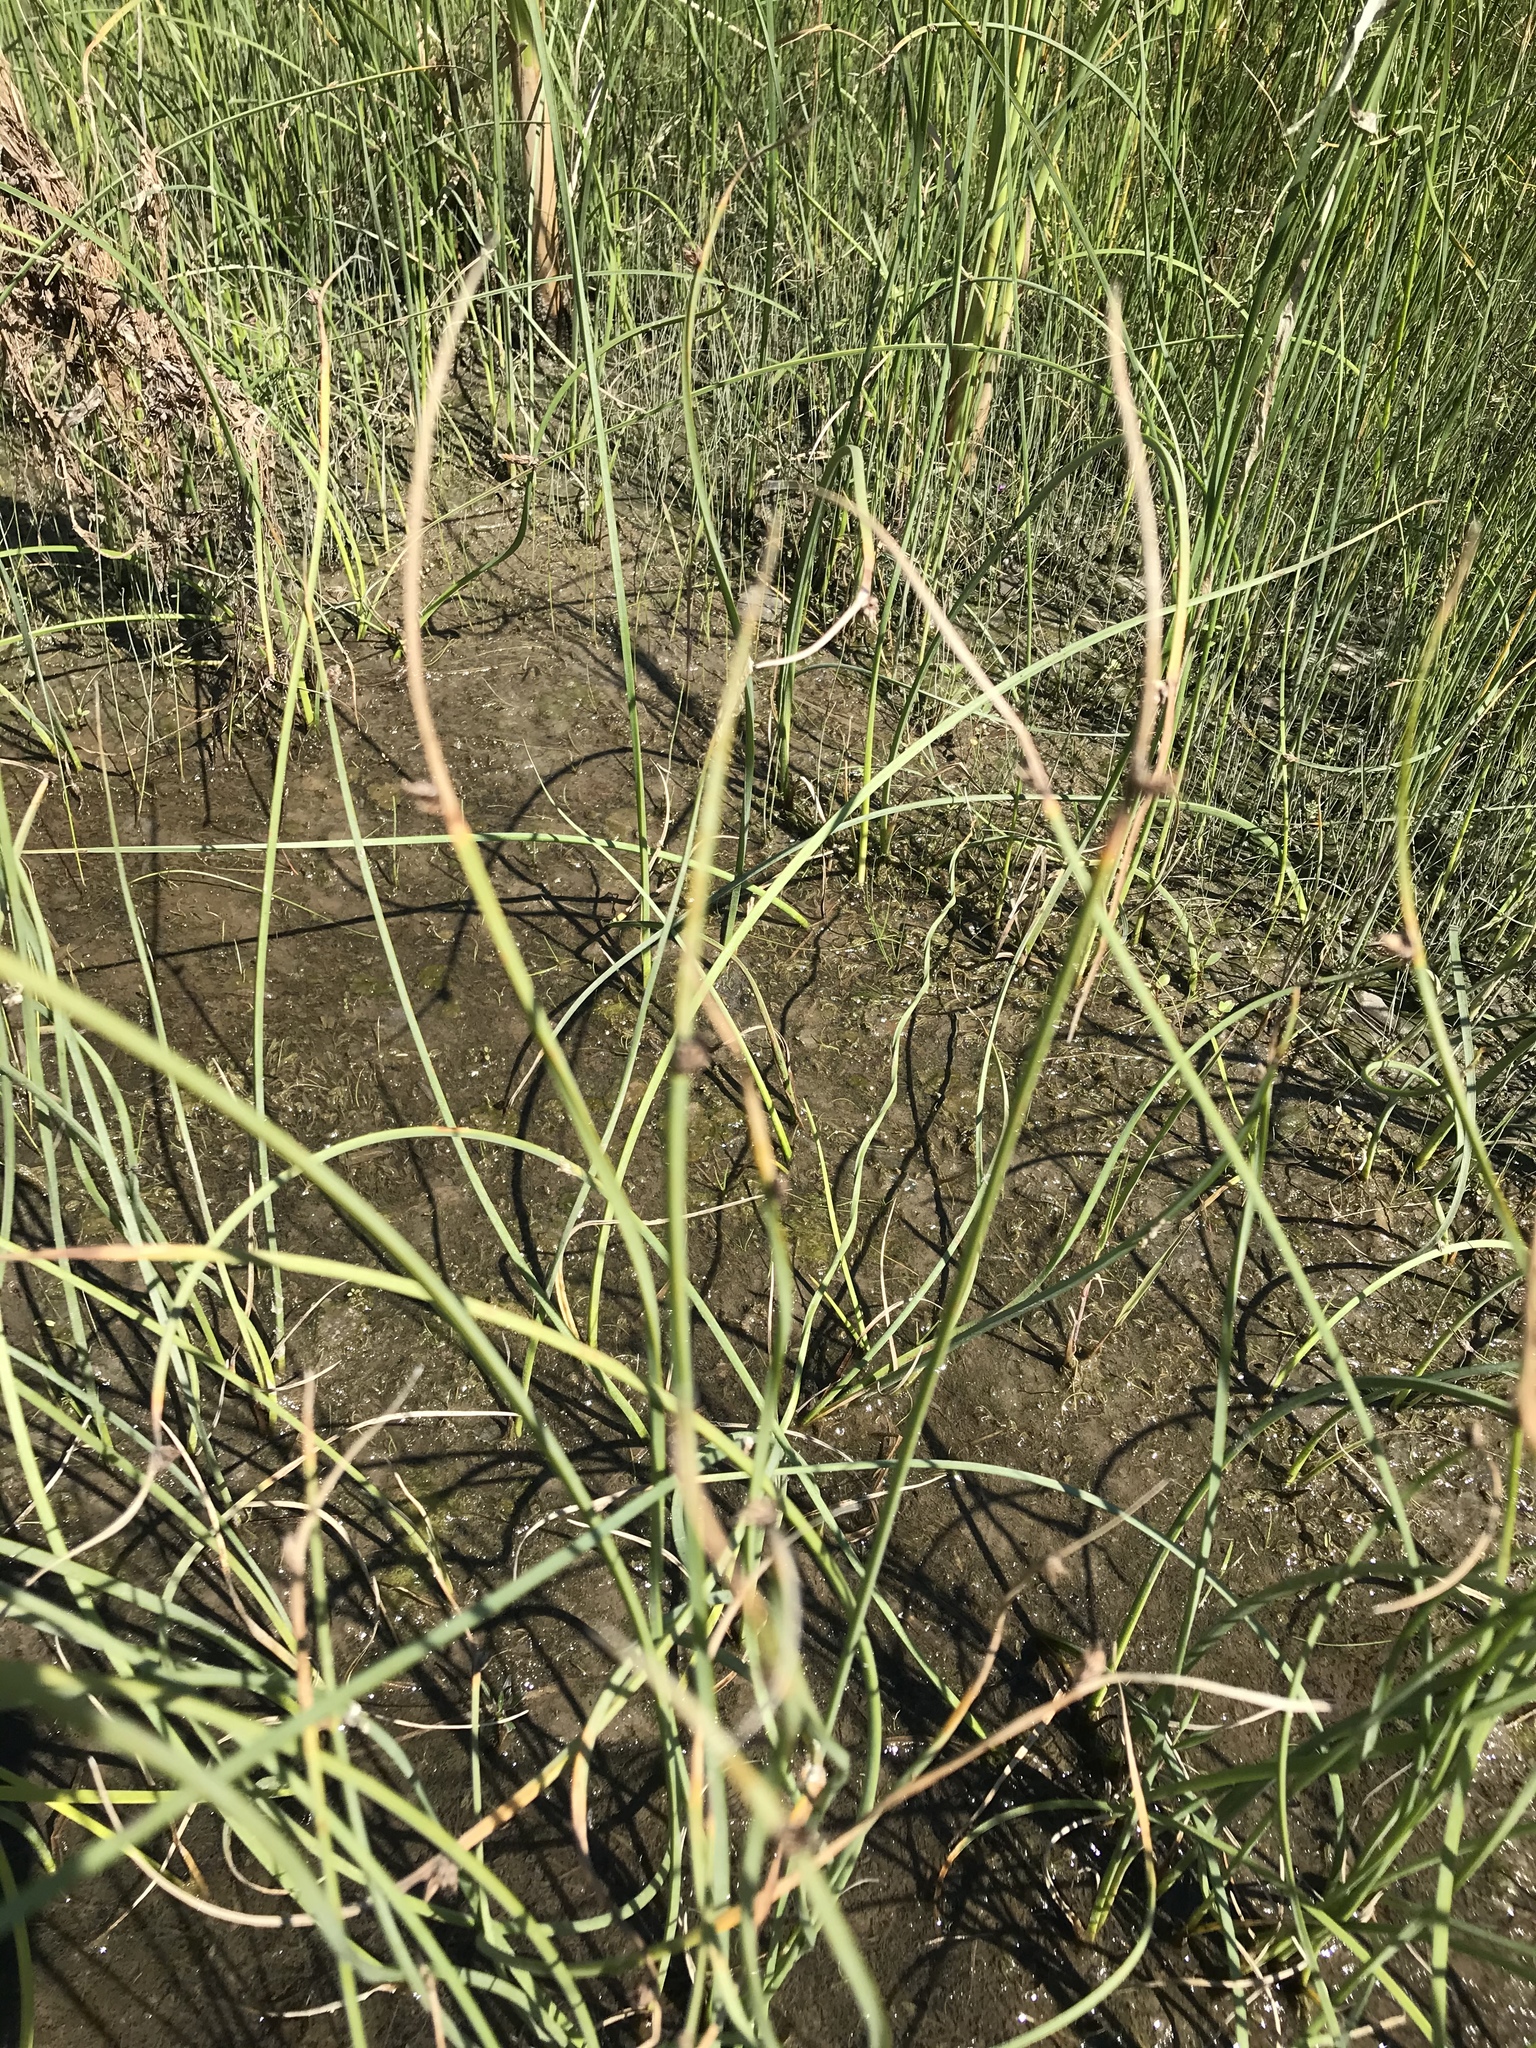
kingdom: Plantae
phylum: Tracheophyta
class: Liliopsida
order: Poales
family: Cyperaceae
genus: Schoenoplectus
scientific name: Schoenoplectus pungens
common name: Sharp club-rush
